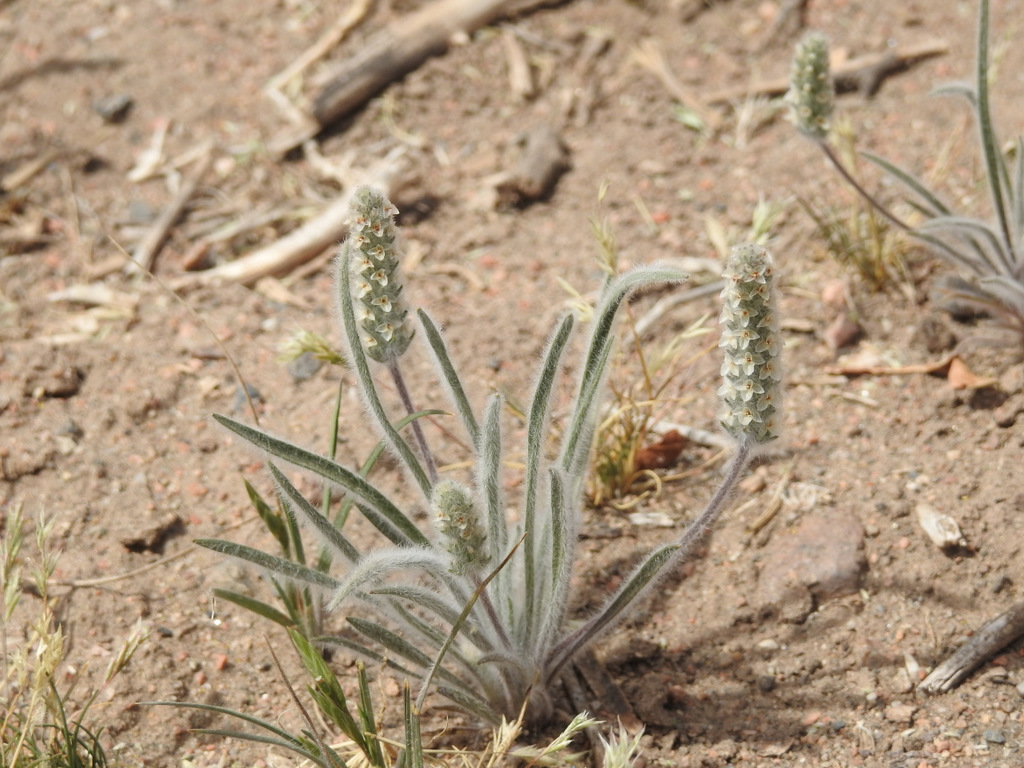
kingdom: Plantae
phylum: Tracheophyta
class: Magnoliopsida
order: Lamiales
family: Plantaginaceae
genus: Plantago
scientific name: Plantago patagonica
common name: Patagonia indian-wheat
